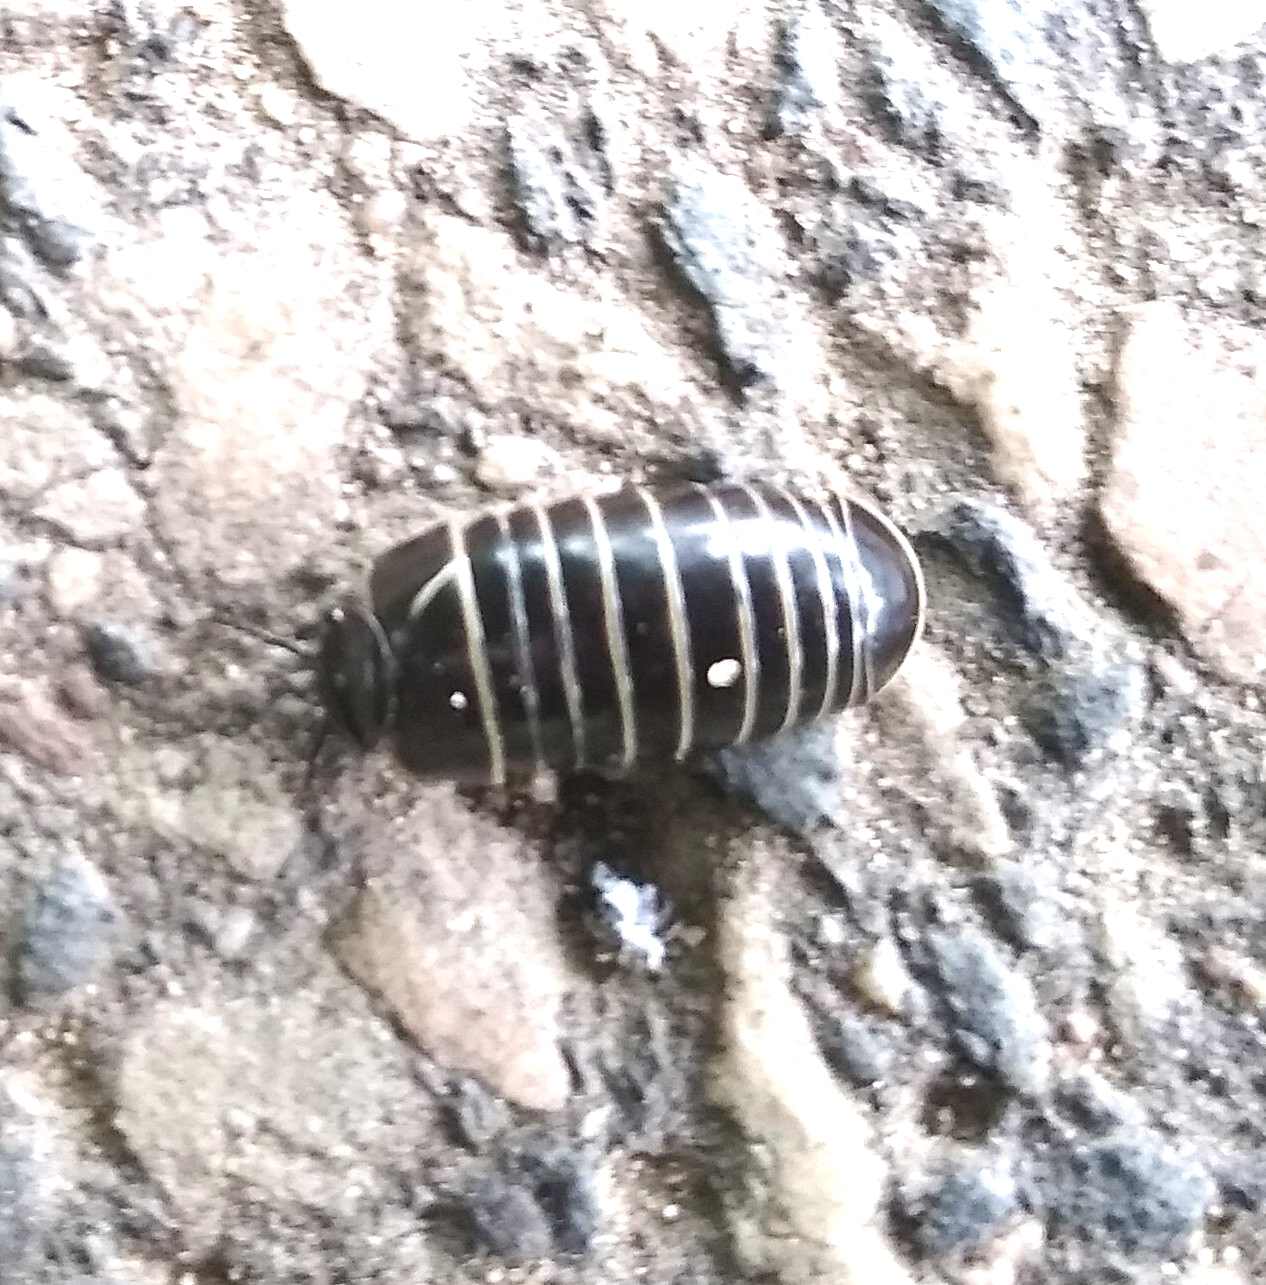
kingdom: Animalia
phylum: Arthropoda
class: Diplopoda
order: Glomerida
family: Glomeridae
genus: Glomeris
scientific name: Glomeris marginata
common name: Bordered pill millipede
